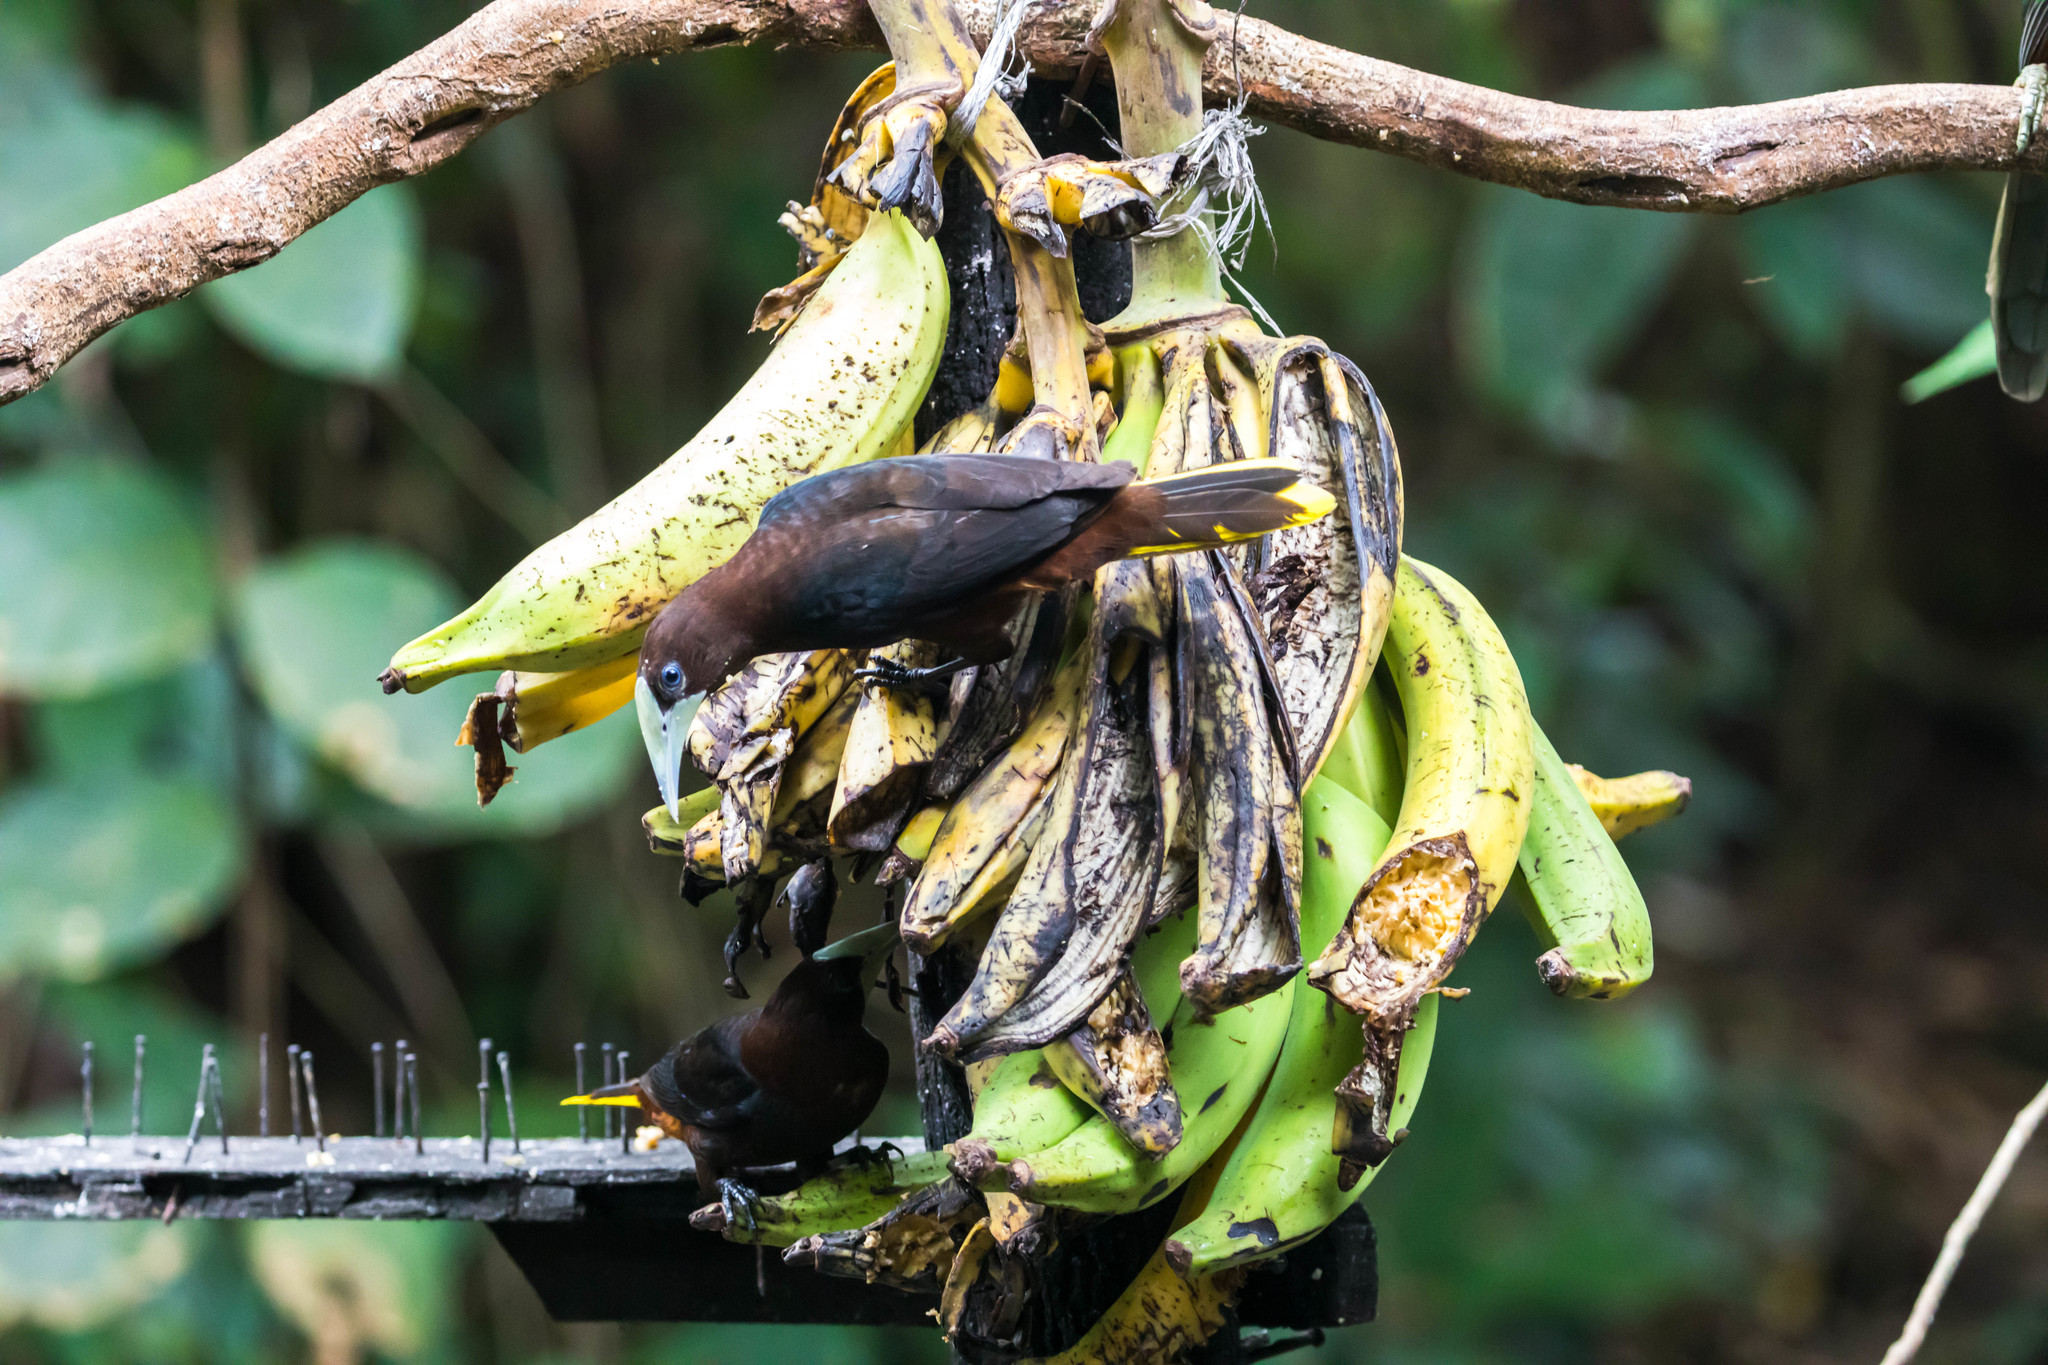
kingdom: Animalia
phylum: Chordata
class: Aves
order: Passeriformes
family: Icteridae
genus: Psarocolius
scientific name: Psarocolius wagleri
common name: Chestnut-headed oropendola
